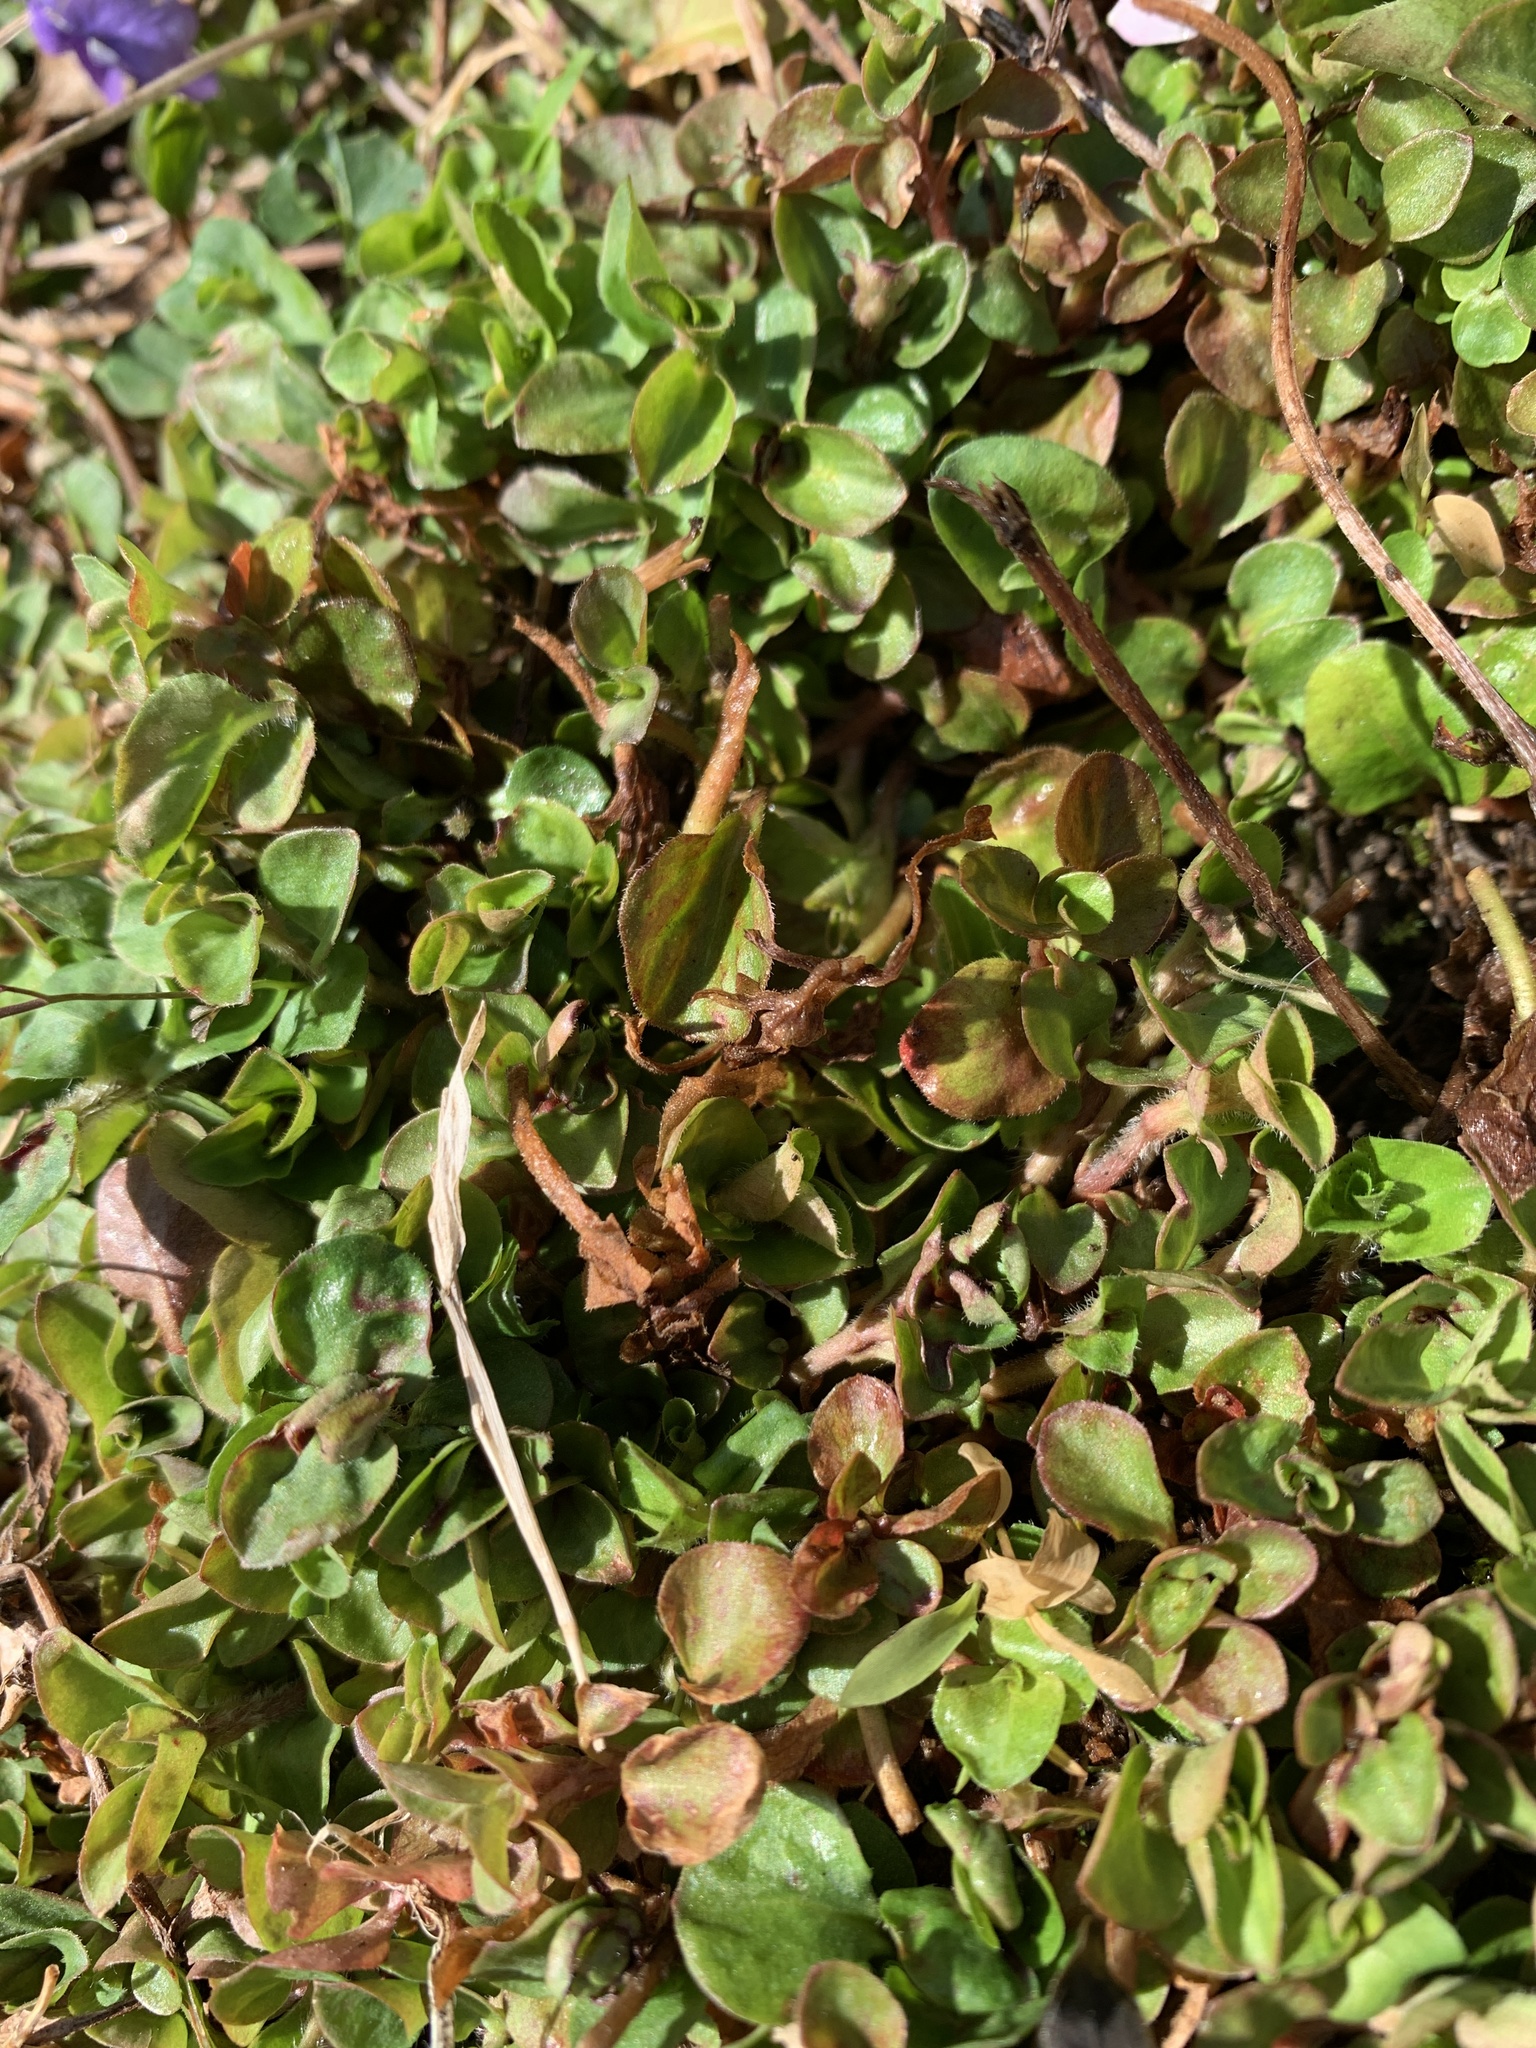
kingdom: Plantae
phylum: Tracheophyta
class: Magnoliopsida
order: Ericales
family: Primulaceae
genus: Lysimachia
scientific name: Lysimachia nummularia
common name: Moneywort
